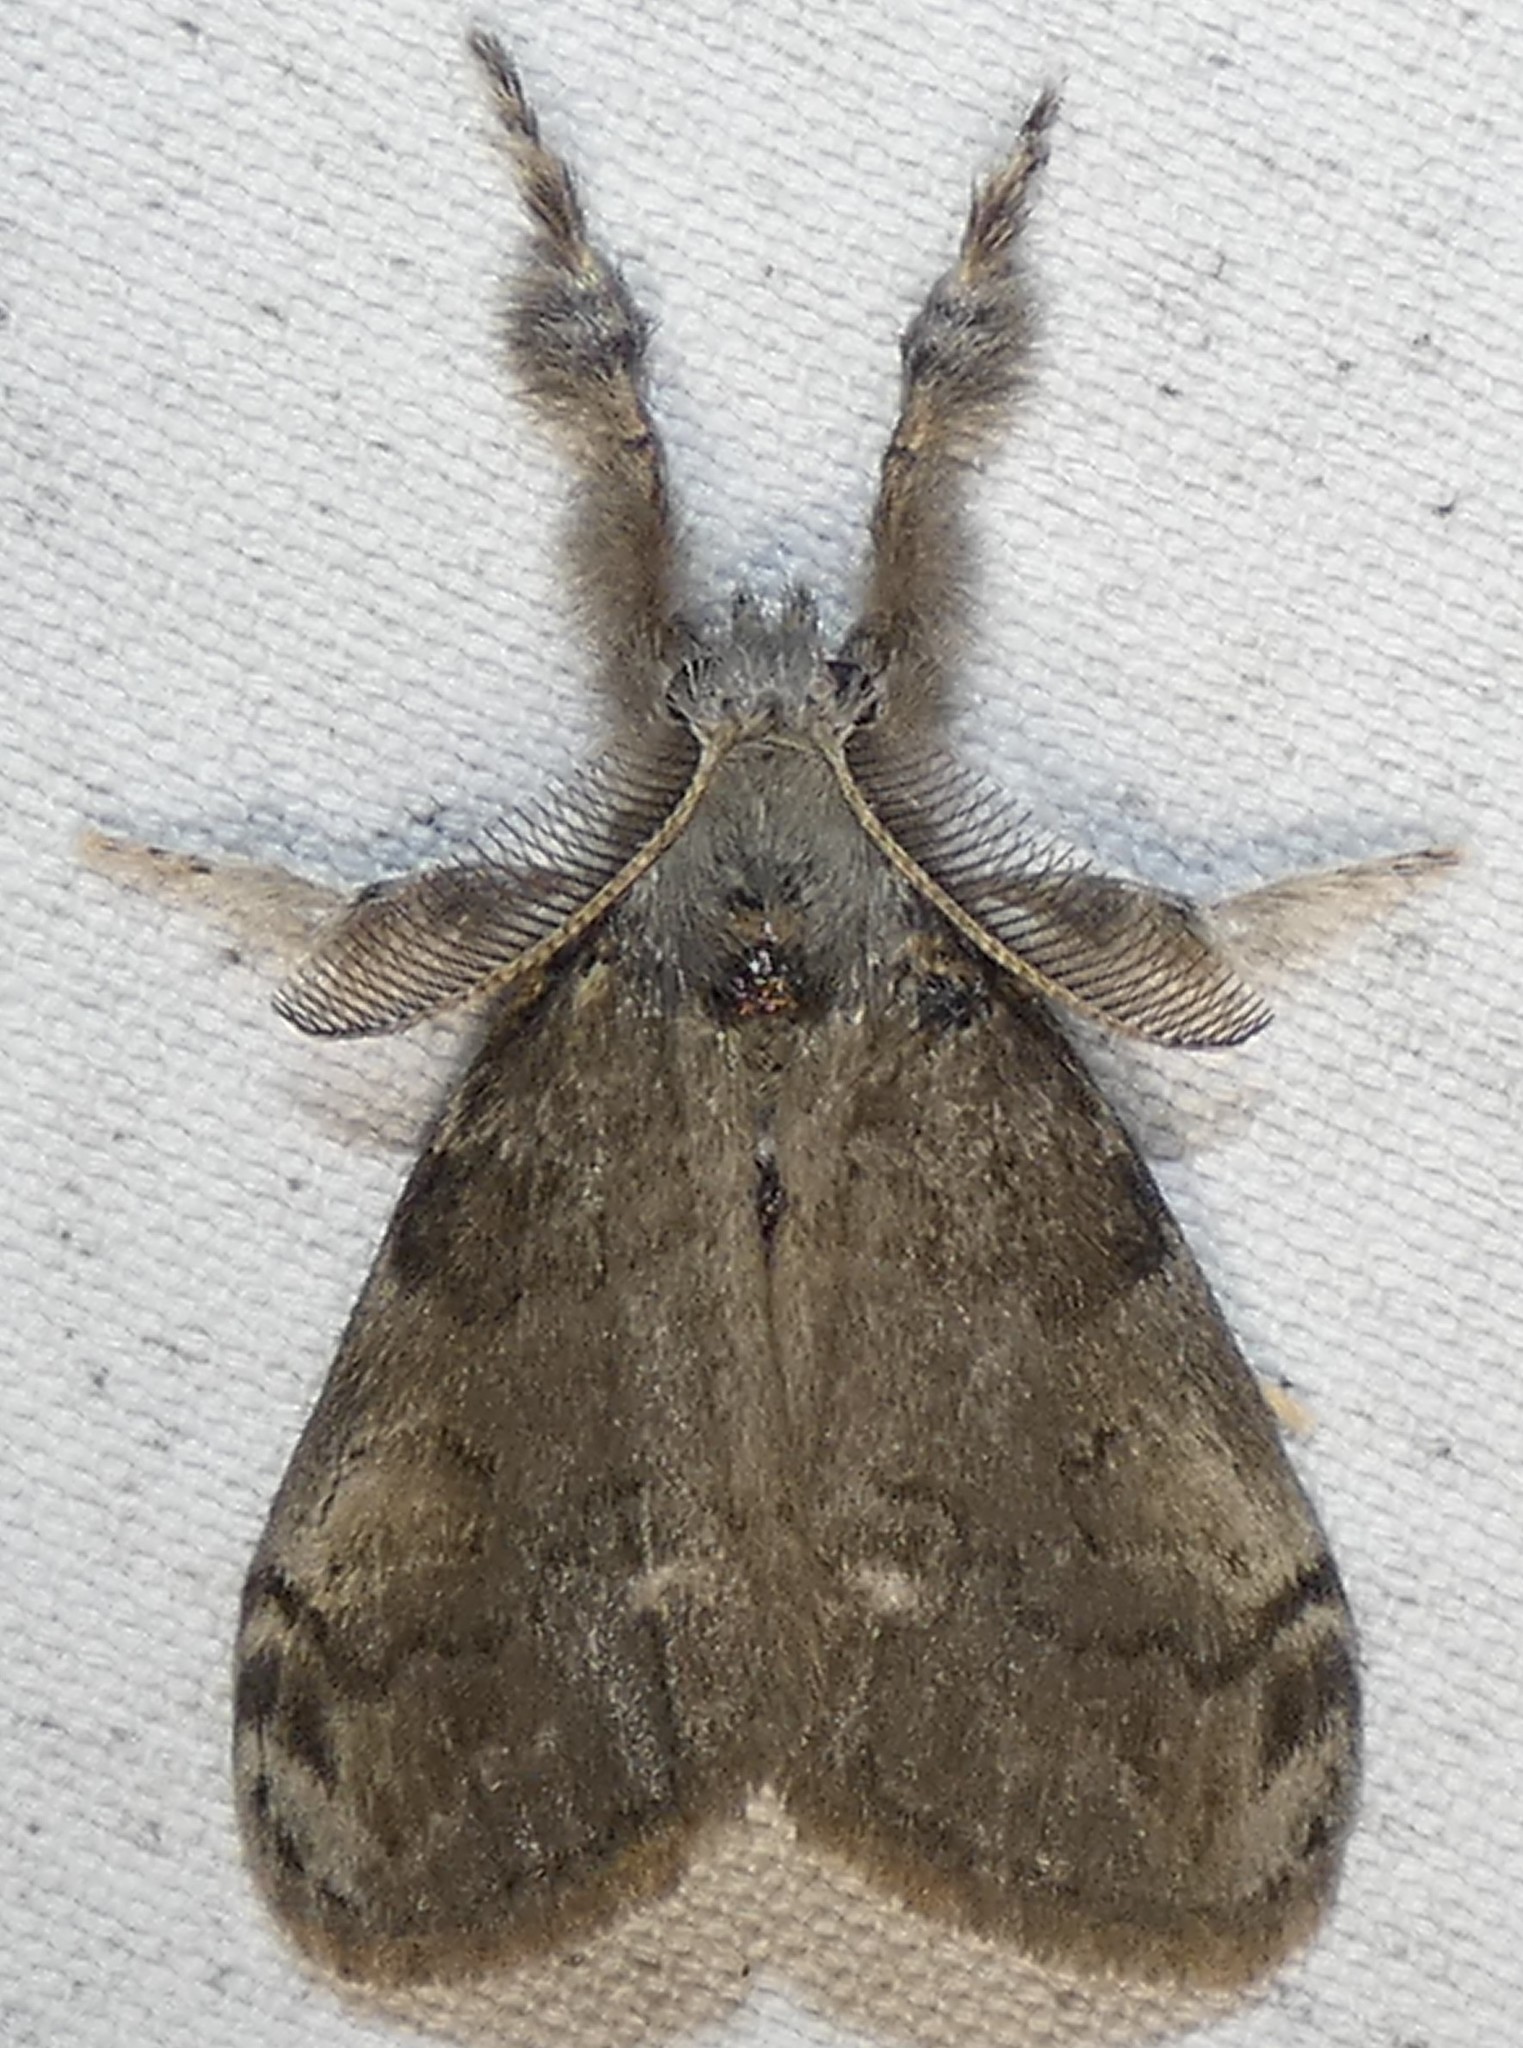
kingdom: Animalia
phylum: Arthropoda
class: Insecta
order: Lepidoptera
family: Erebidae
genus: Orgyia
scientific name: Orgyia leucostigma
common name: White-marked tussock moth
